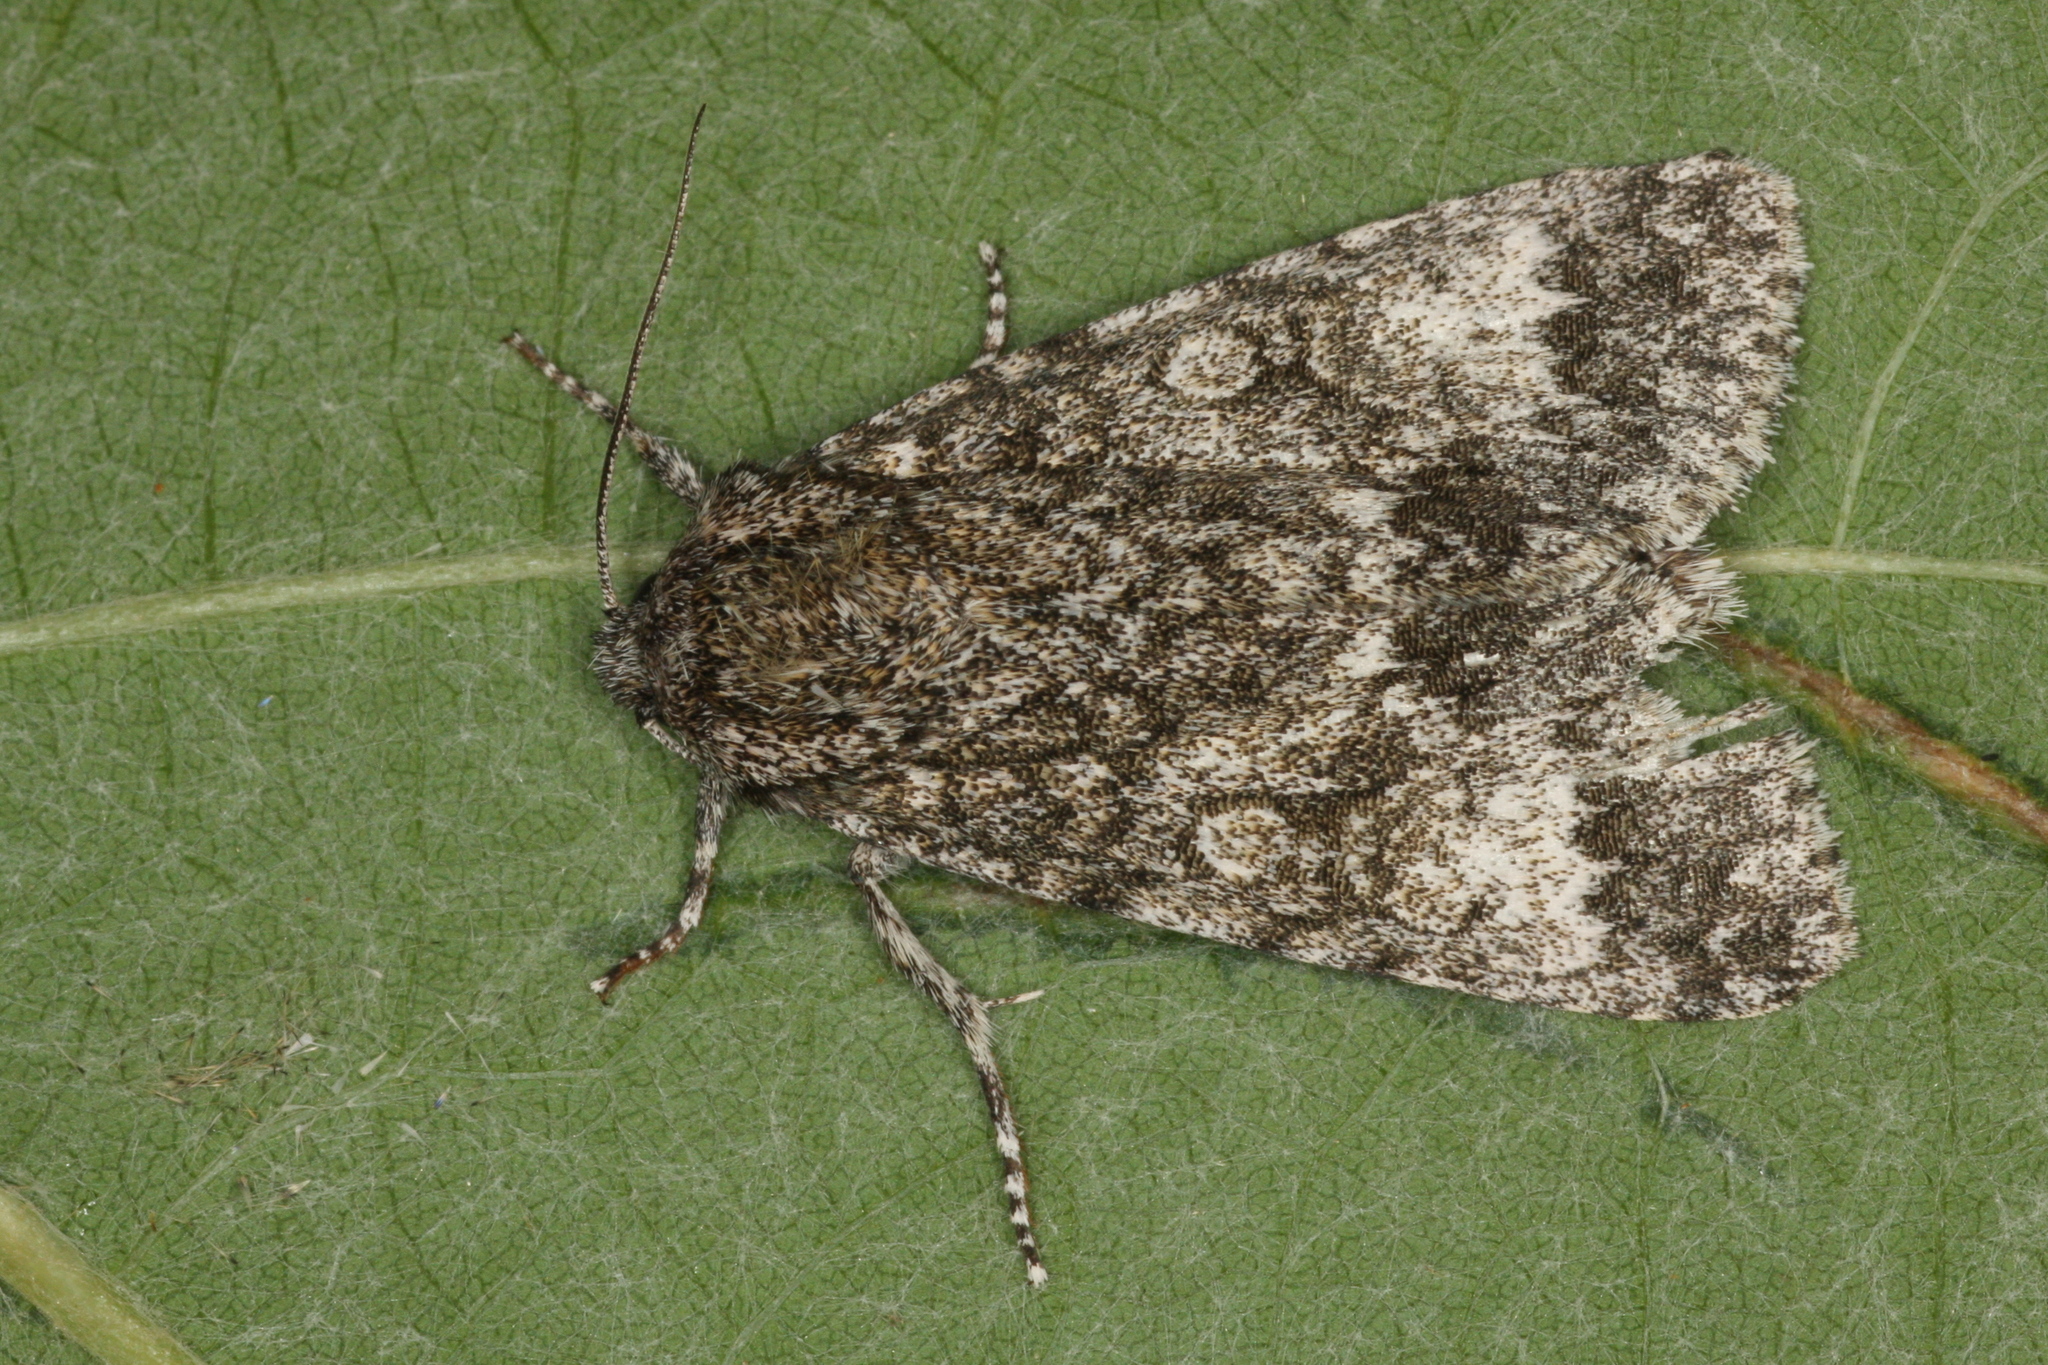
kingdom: Animalia
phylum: Arthropoda
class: Insecta
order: Lepidoptera
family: Noctuidae
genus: Acronicta
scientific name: Acronicta megacephala
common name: Poplar grey
